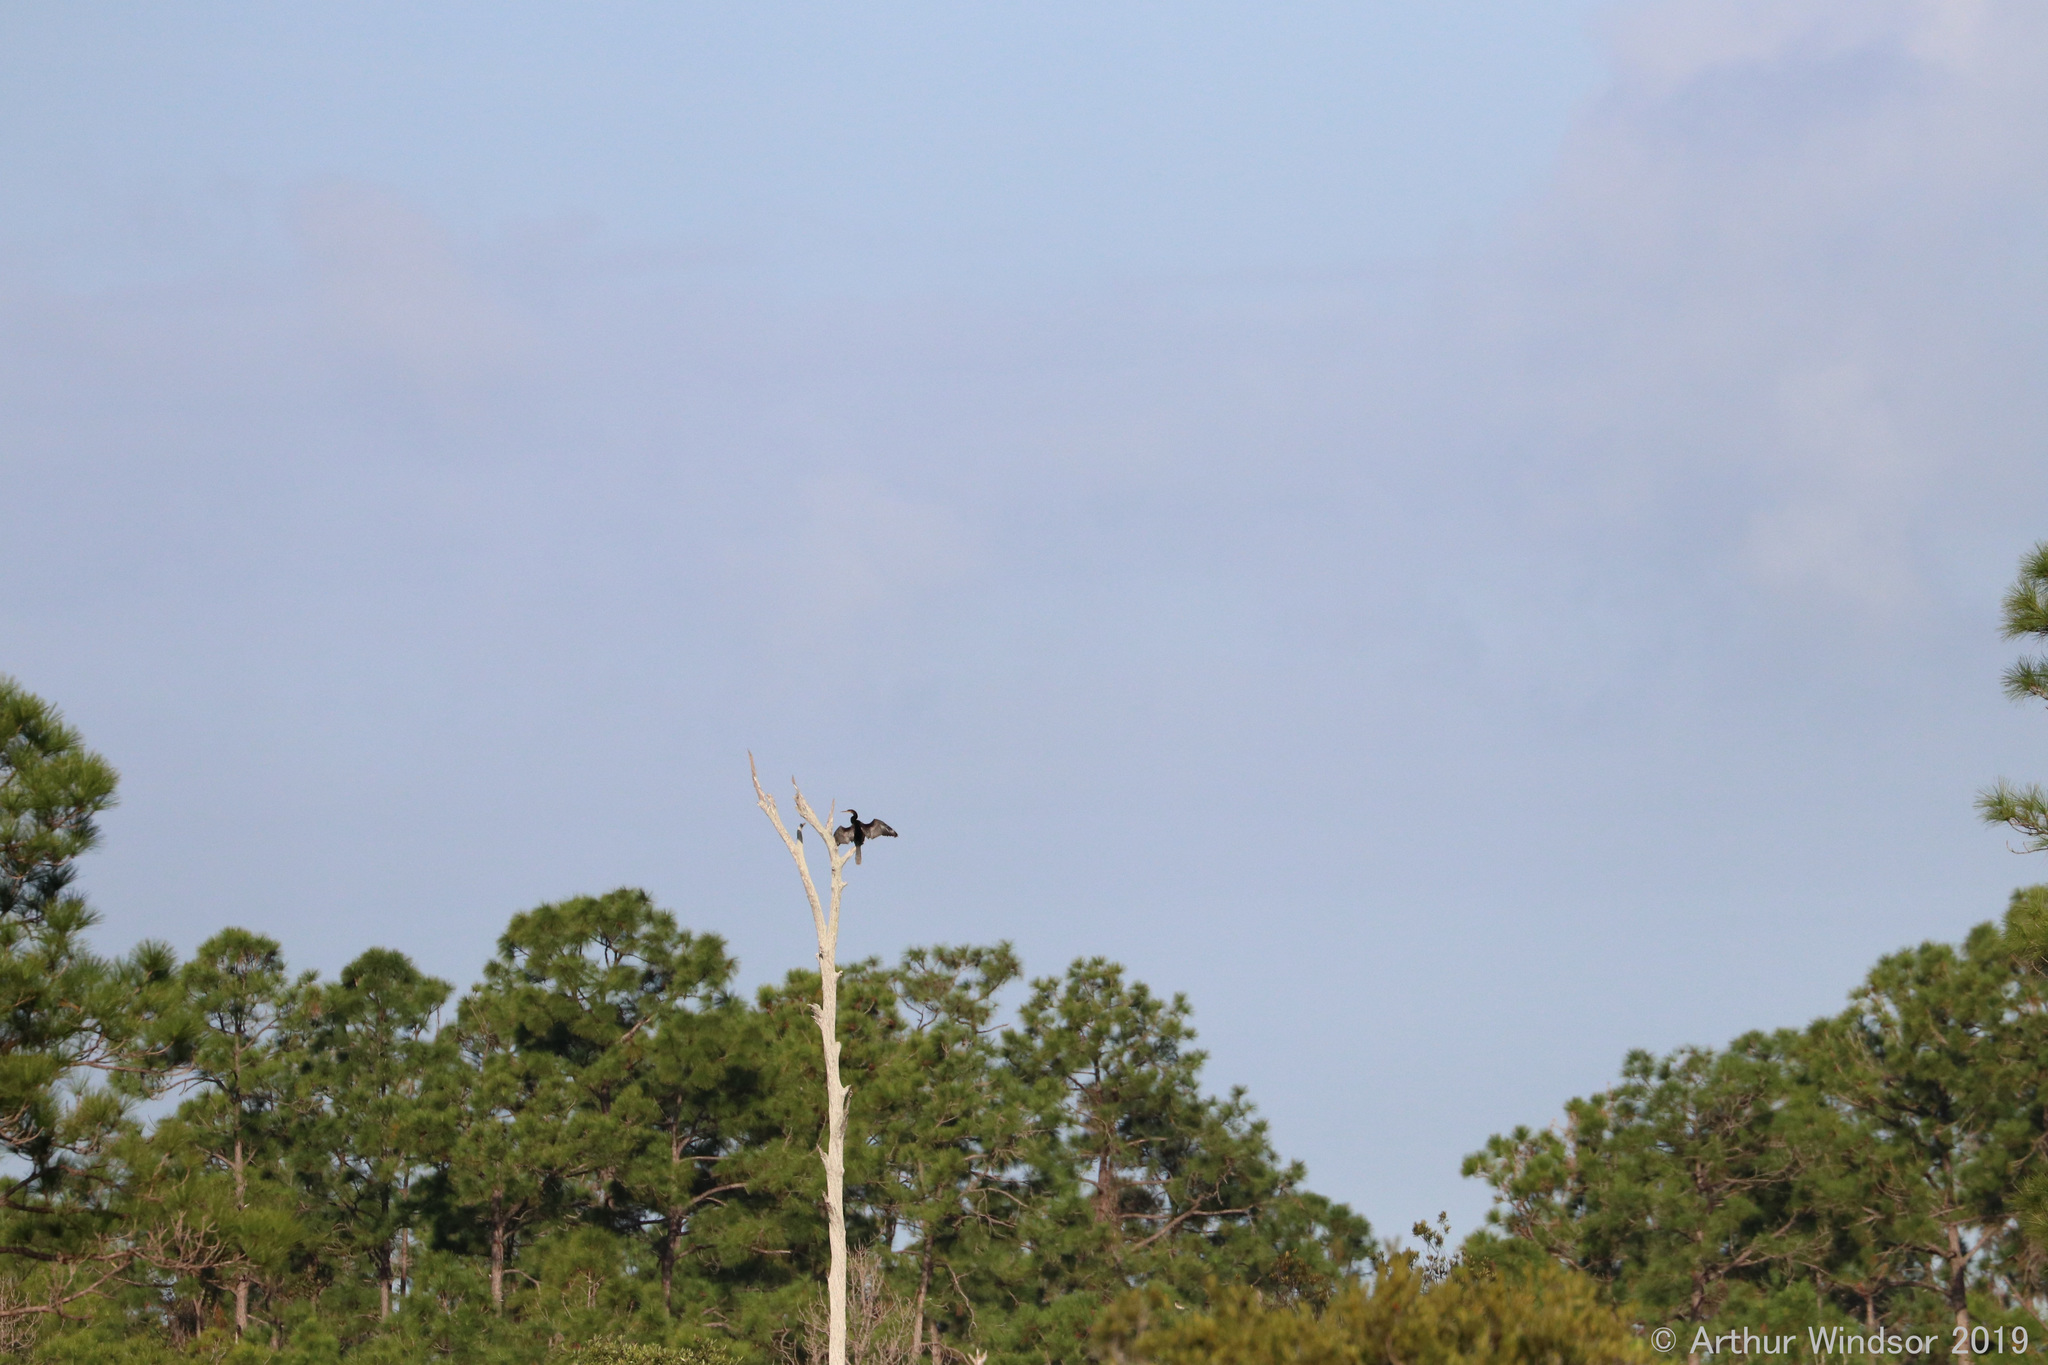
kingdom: Animalia
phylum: Chordata
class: Aves
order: Suliformes
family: Anhingidae
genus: Anhinga
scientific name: Anhinga anhinga
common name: Anhinga
